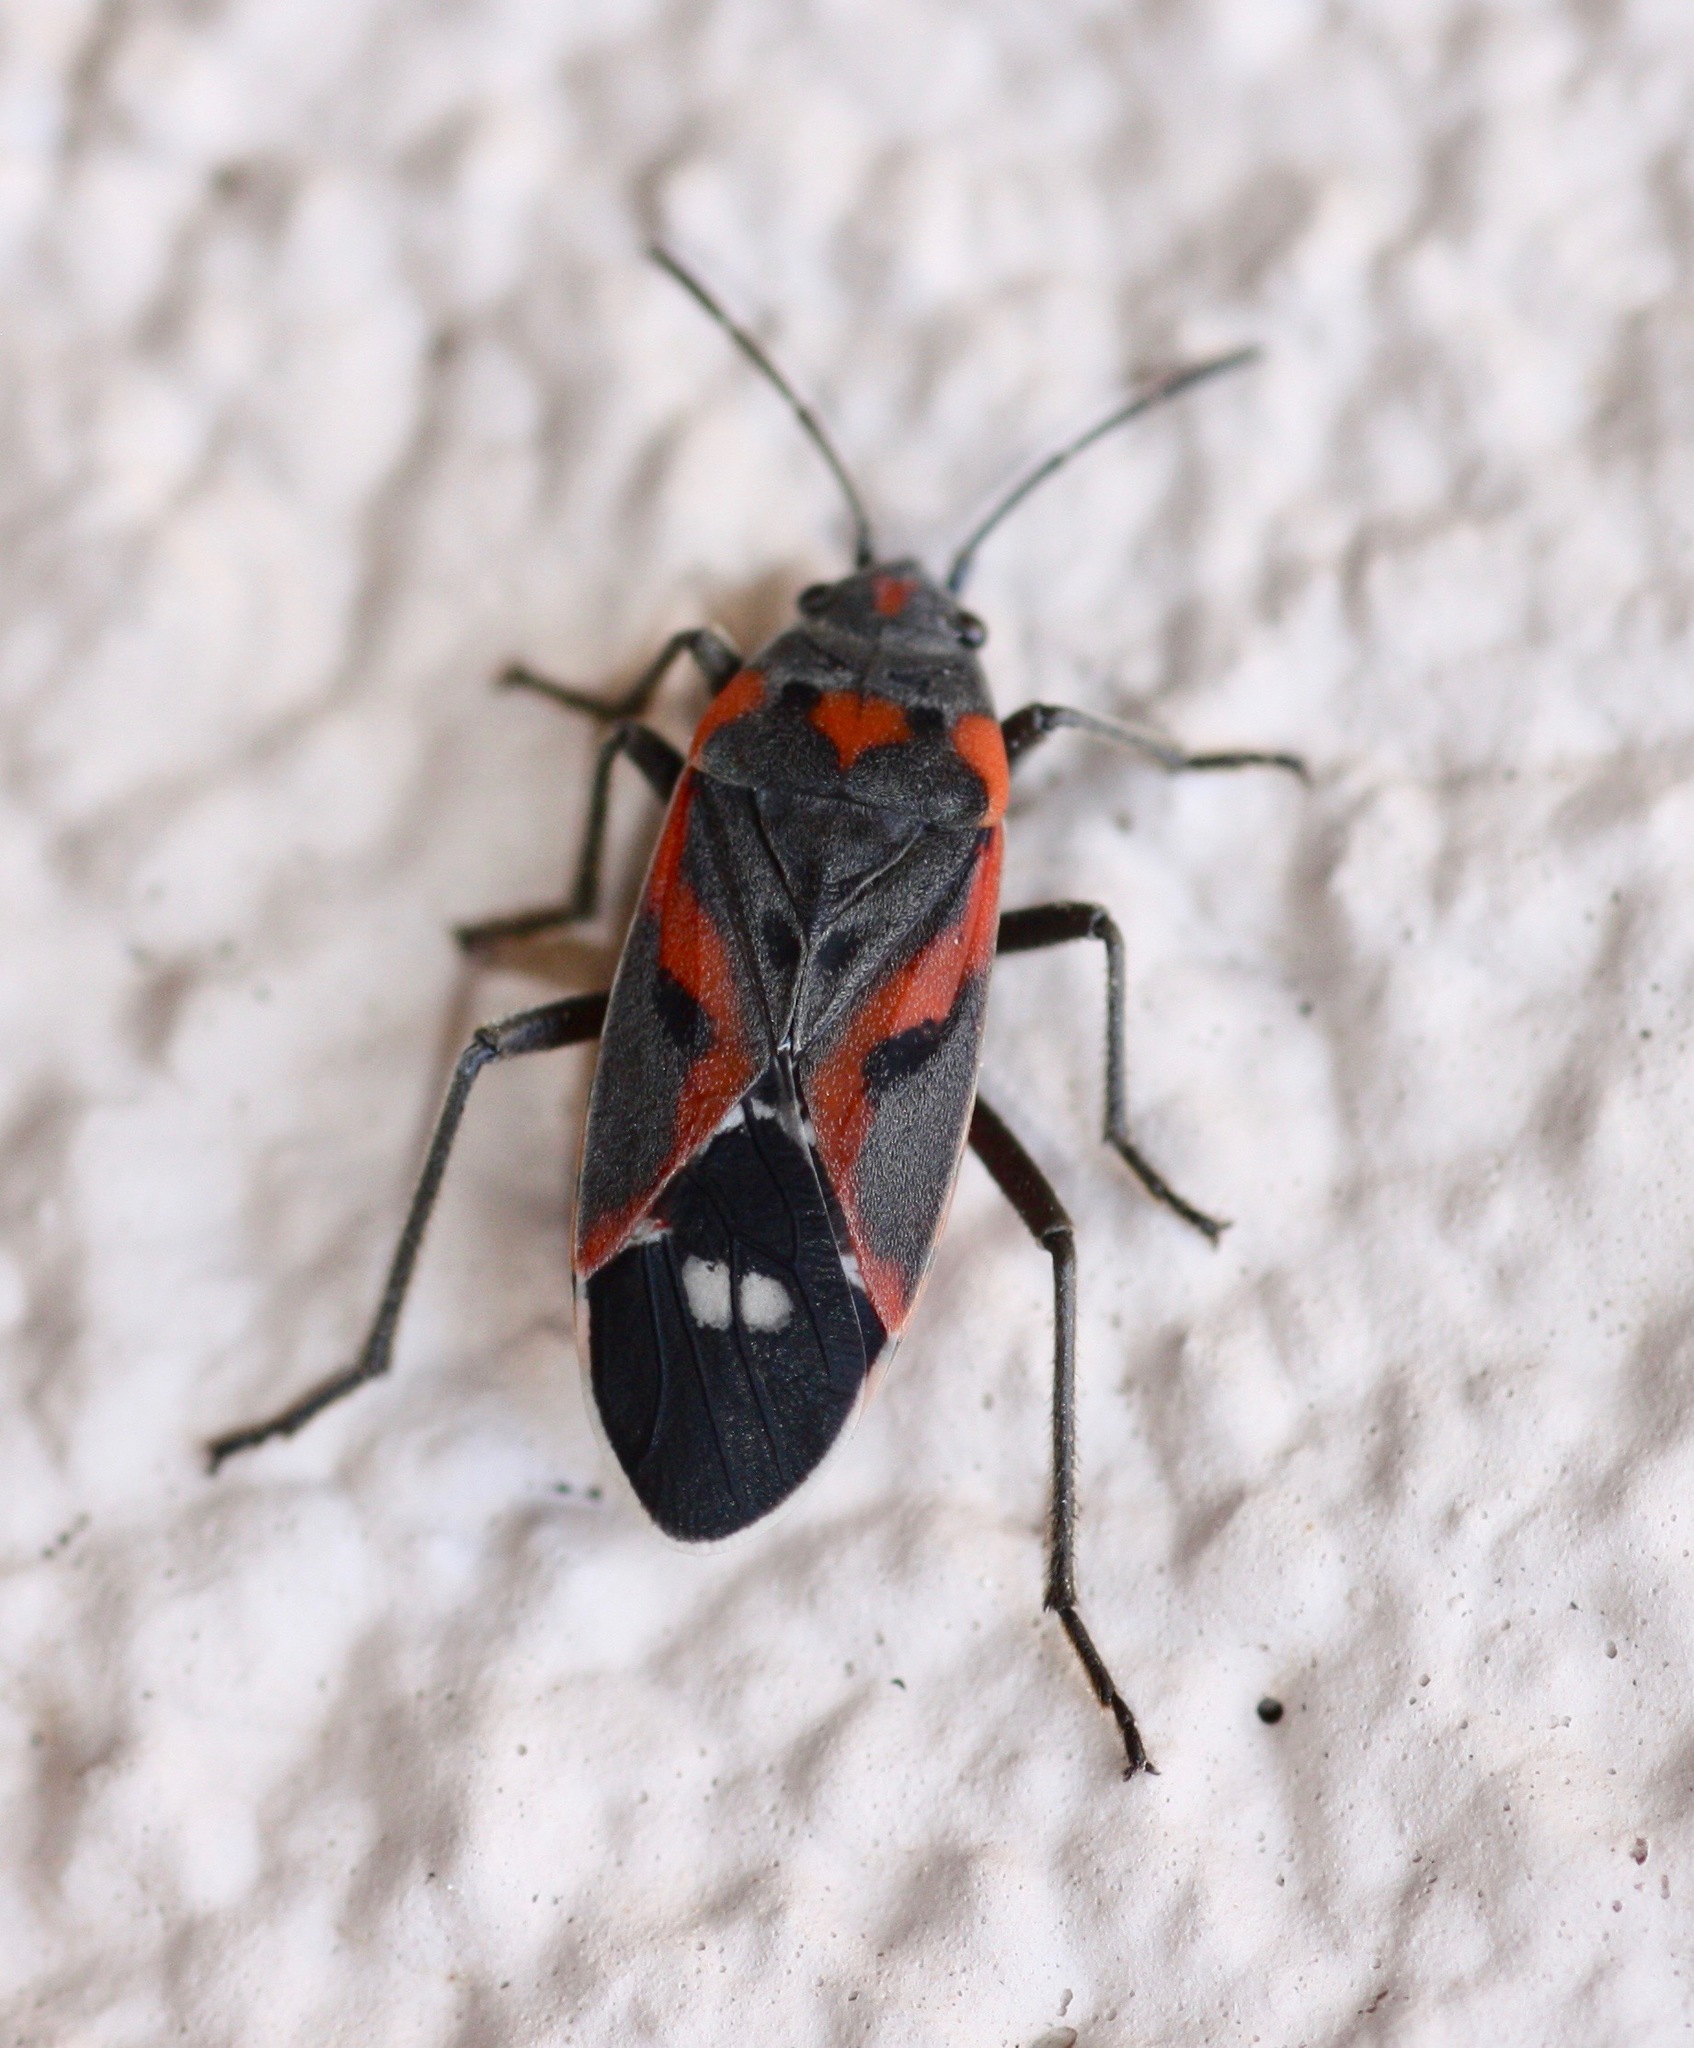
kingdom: Animalia
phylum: Arthropoda
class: Insecta
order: Hemiptera
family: Lygaeidae
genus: Lygaeus
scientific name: Lygaeus kalmii
